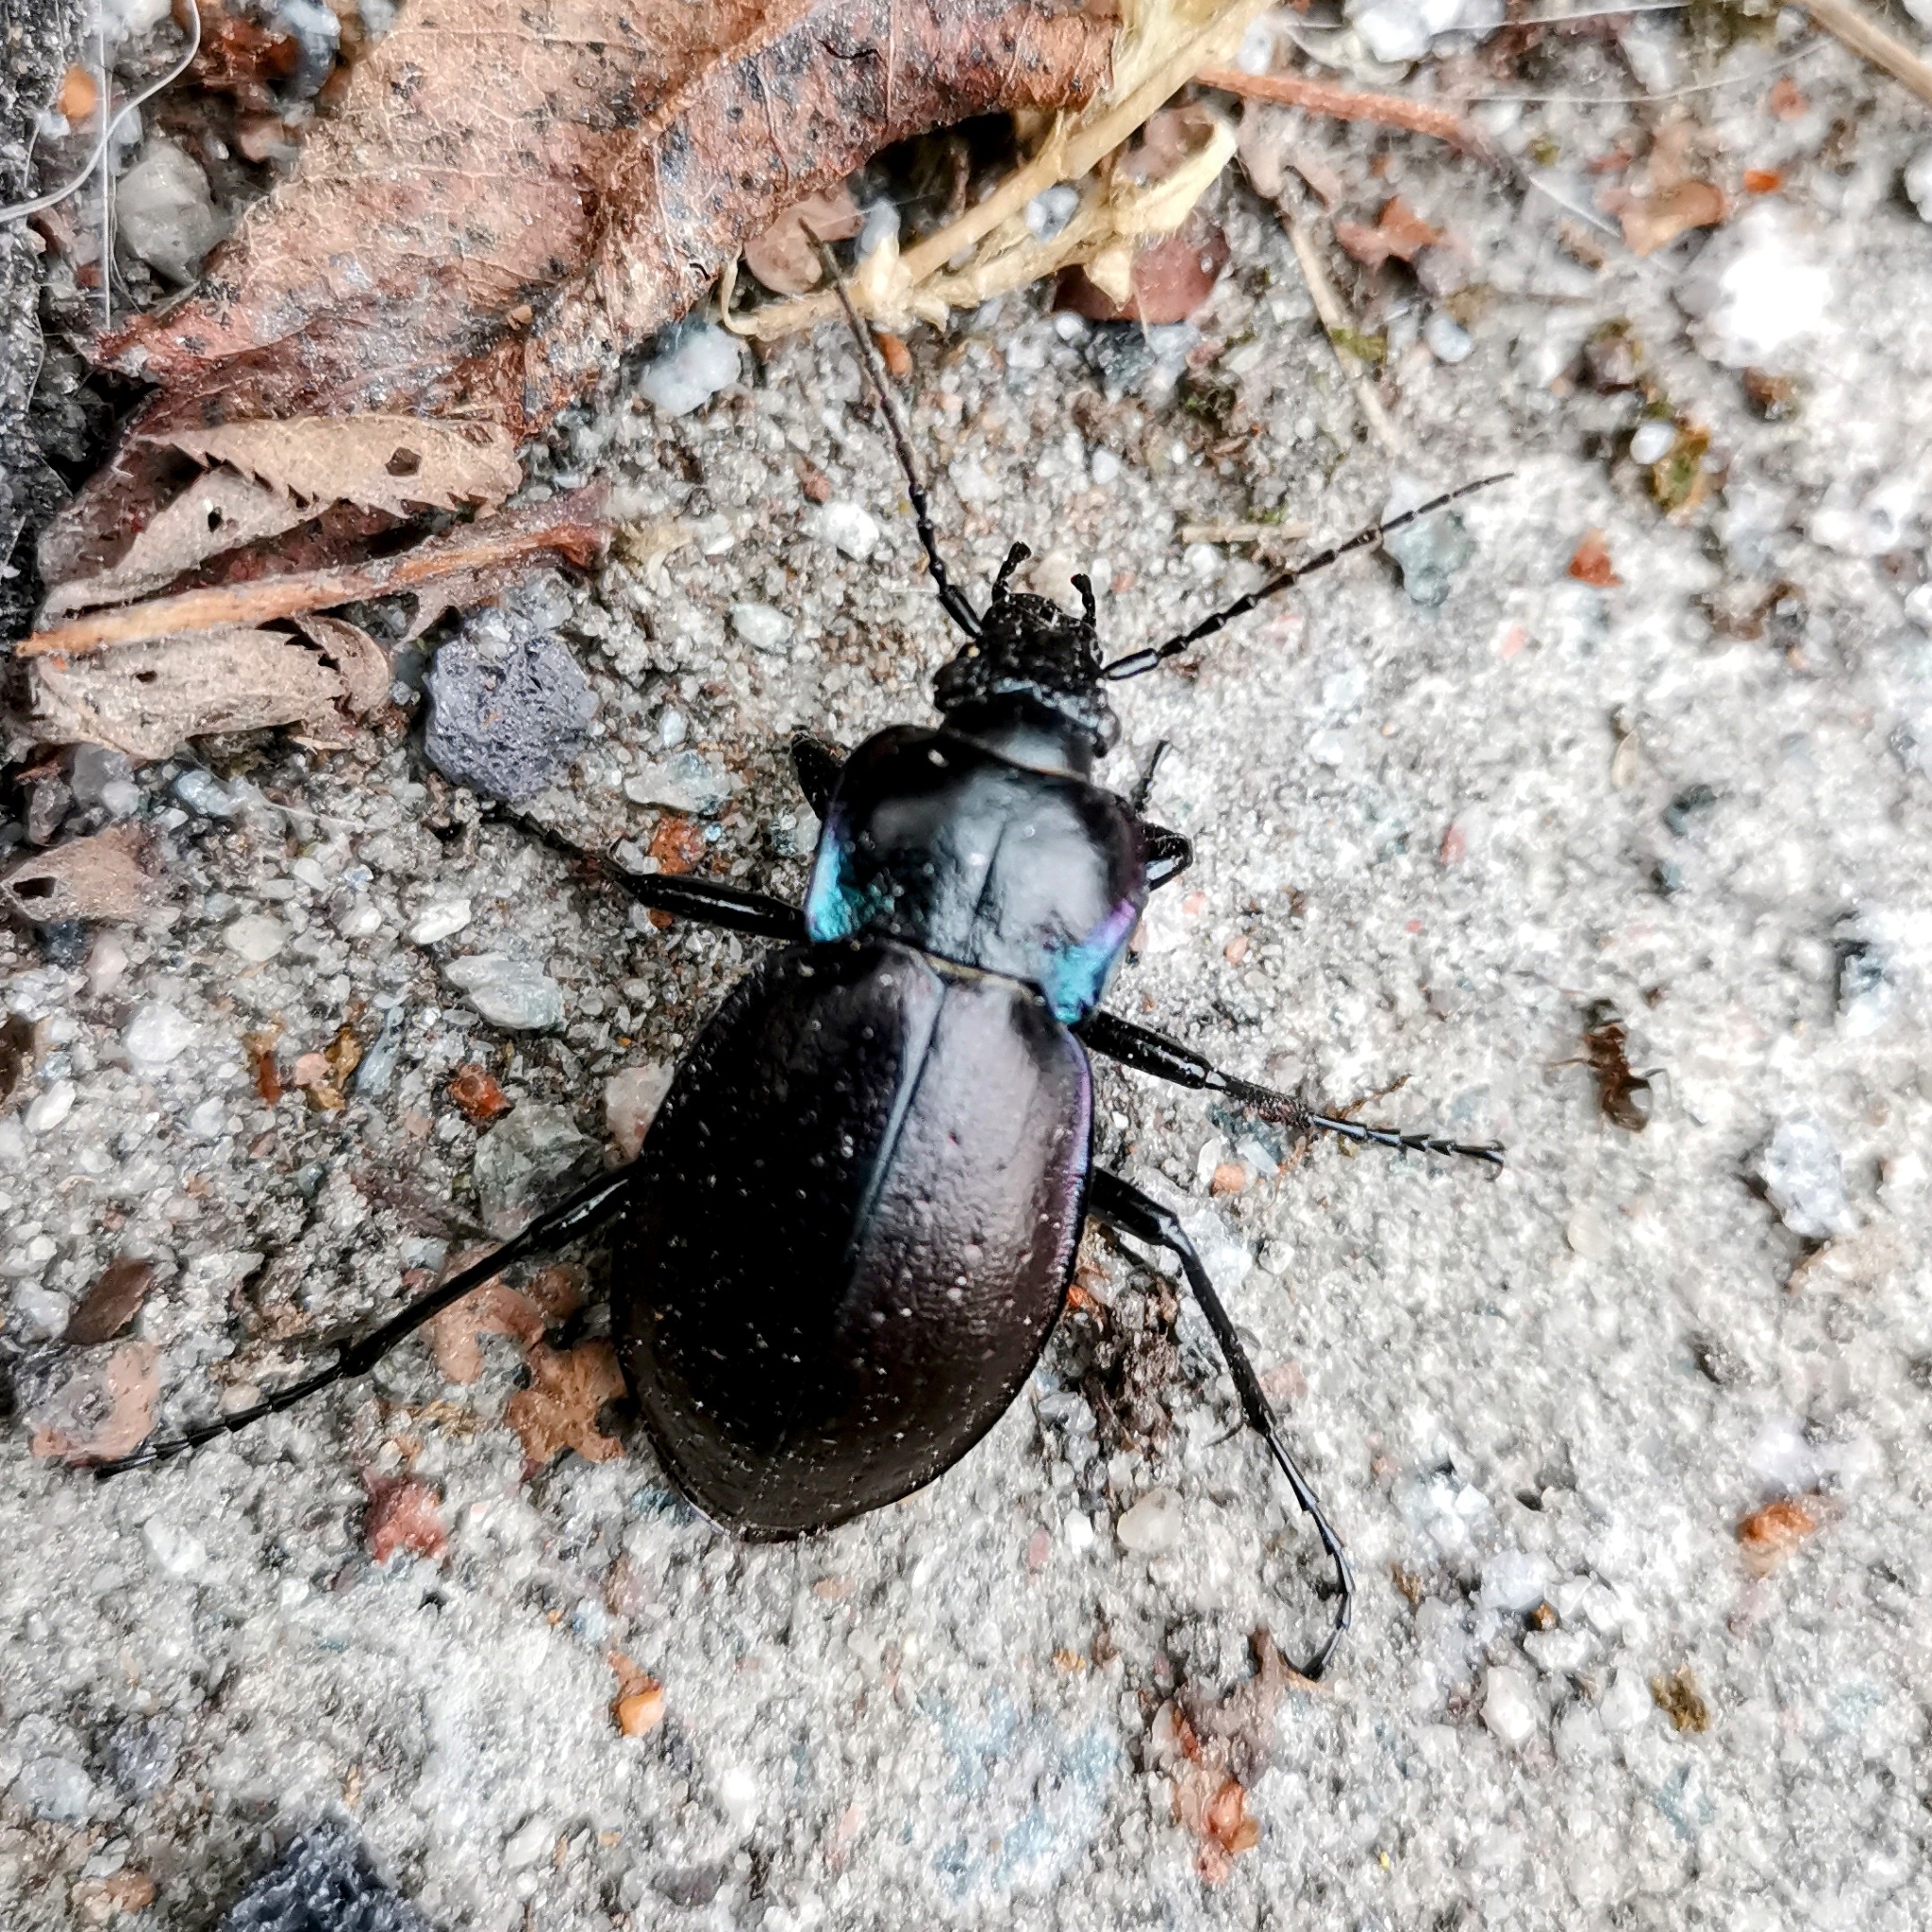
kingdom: Animalia
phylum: Arthropoda
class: Insecta
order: Coleoptera
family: Carabidae
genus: Carabus
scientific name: Carabus nemoralis
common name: European ground beetle
